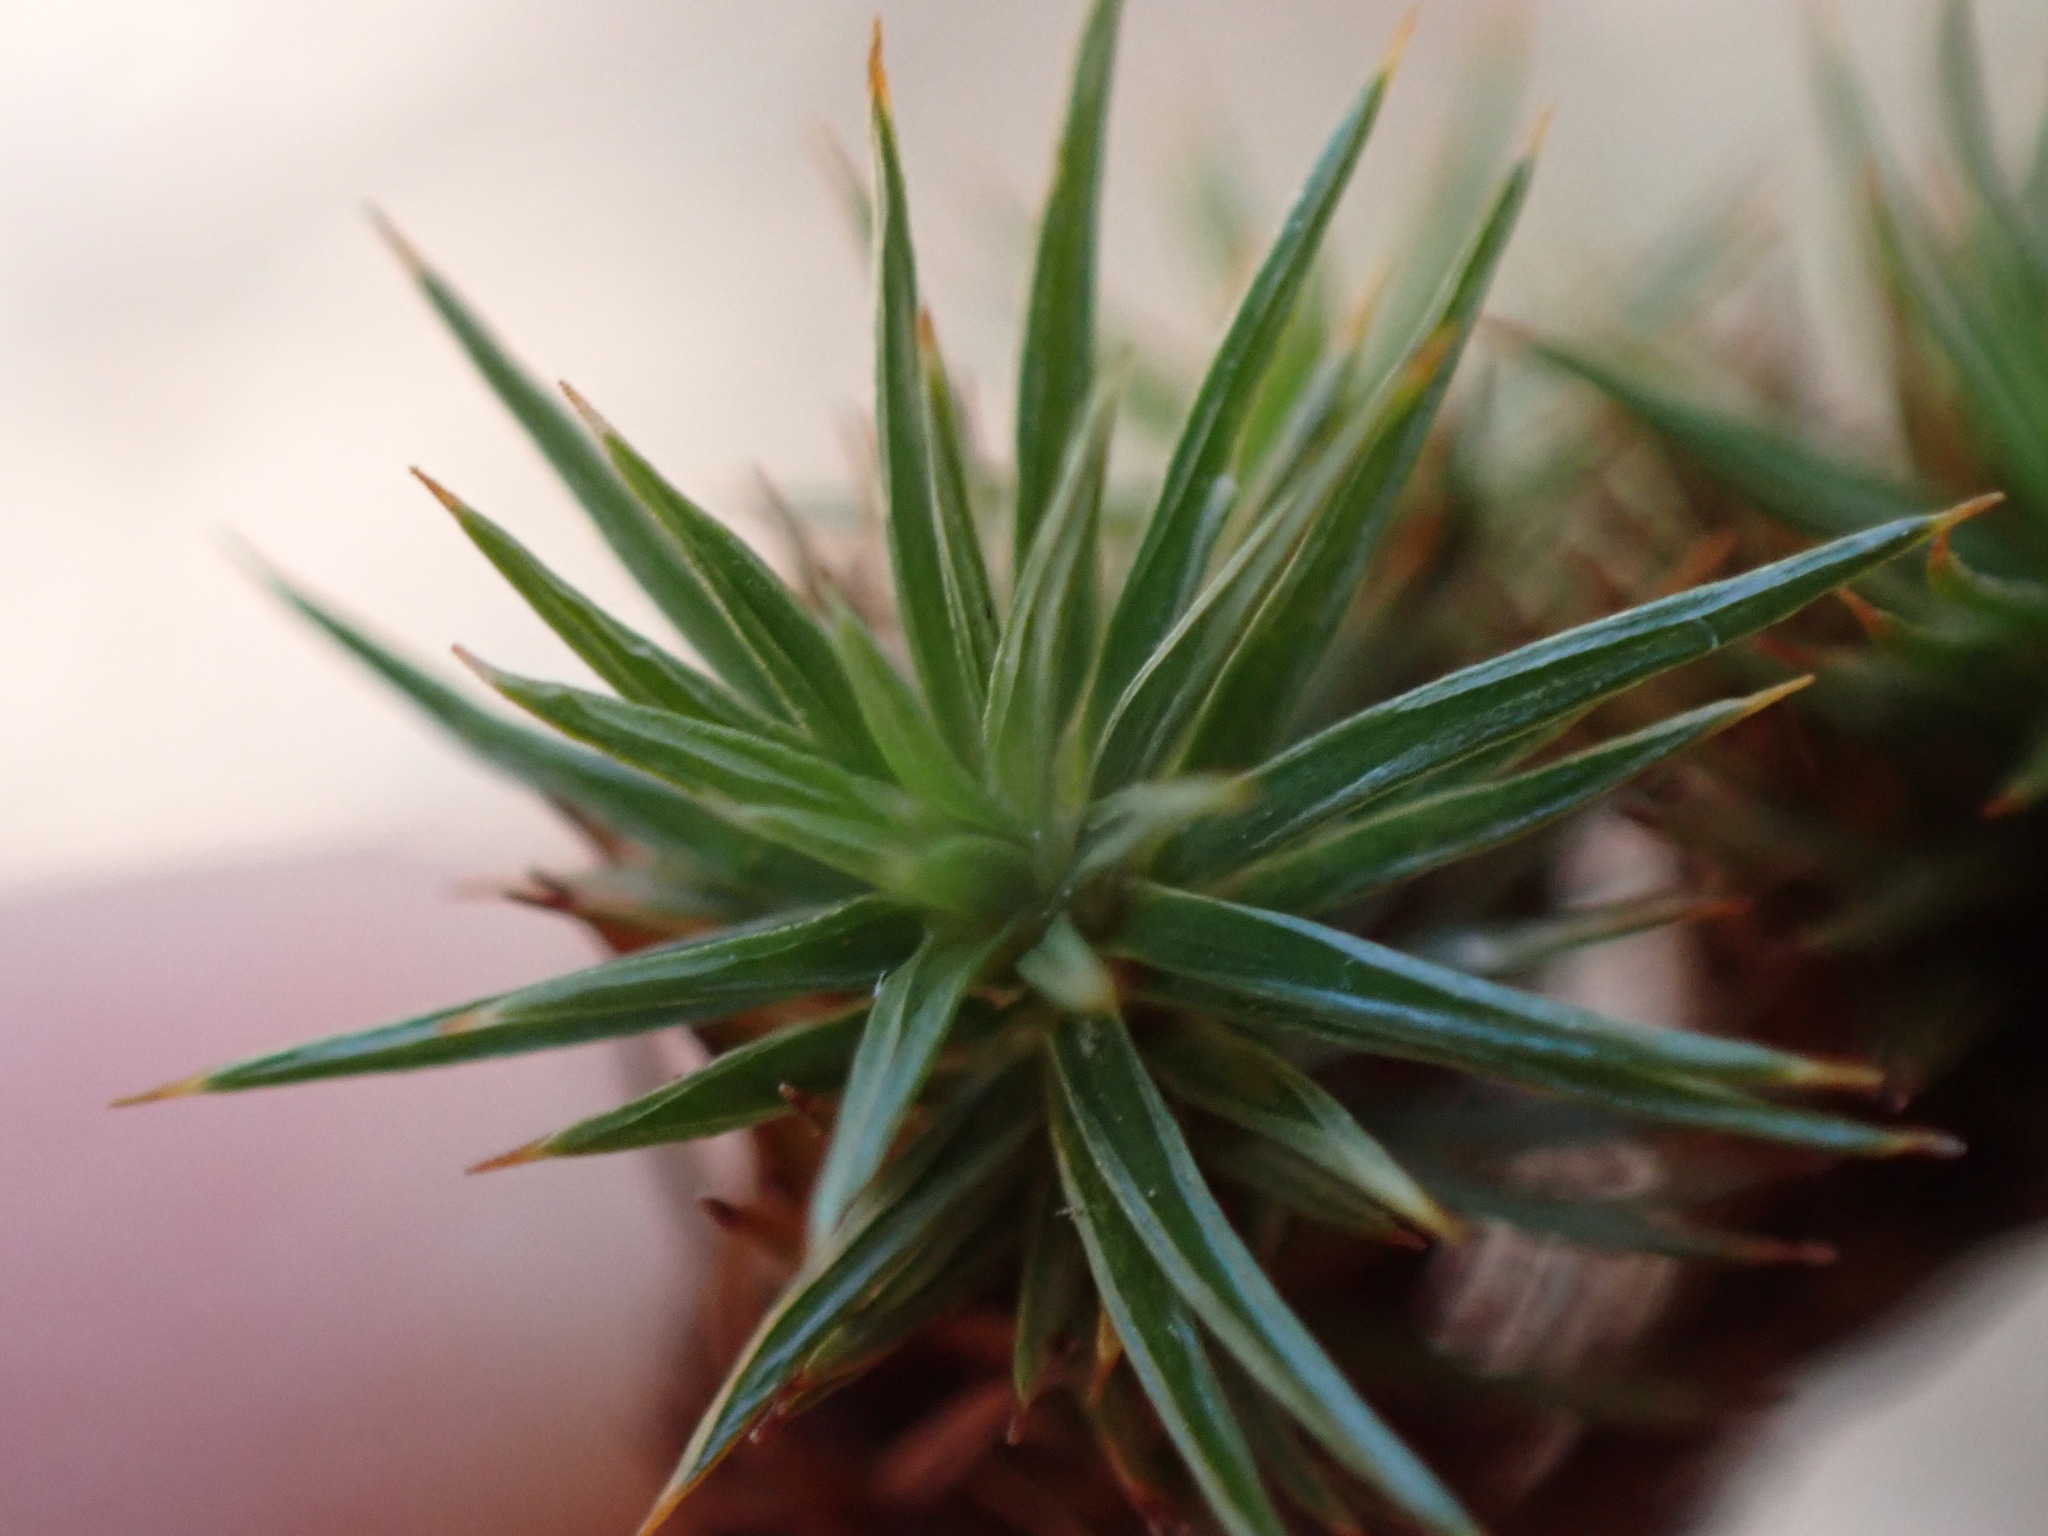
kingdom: Plantae
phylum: Bryophyta
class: Polytrichopsida
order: Polytrichales
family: Polytrichaceae
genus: Polytrichum
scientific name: Polytrichum juniperinum
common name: Juniper haircap moss
